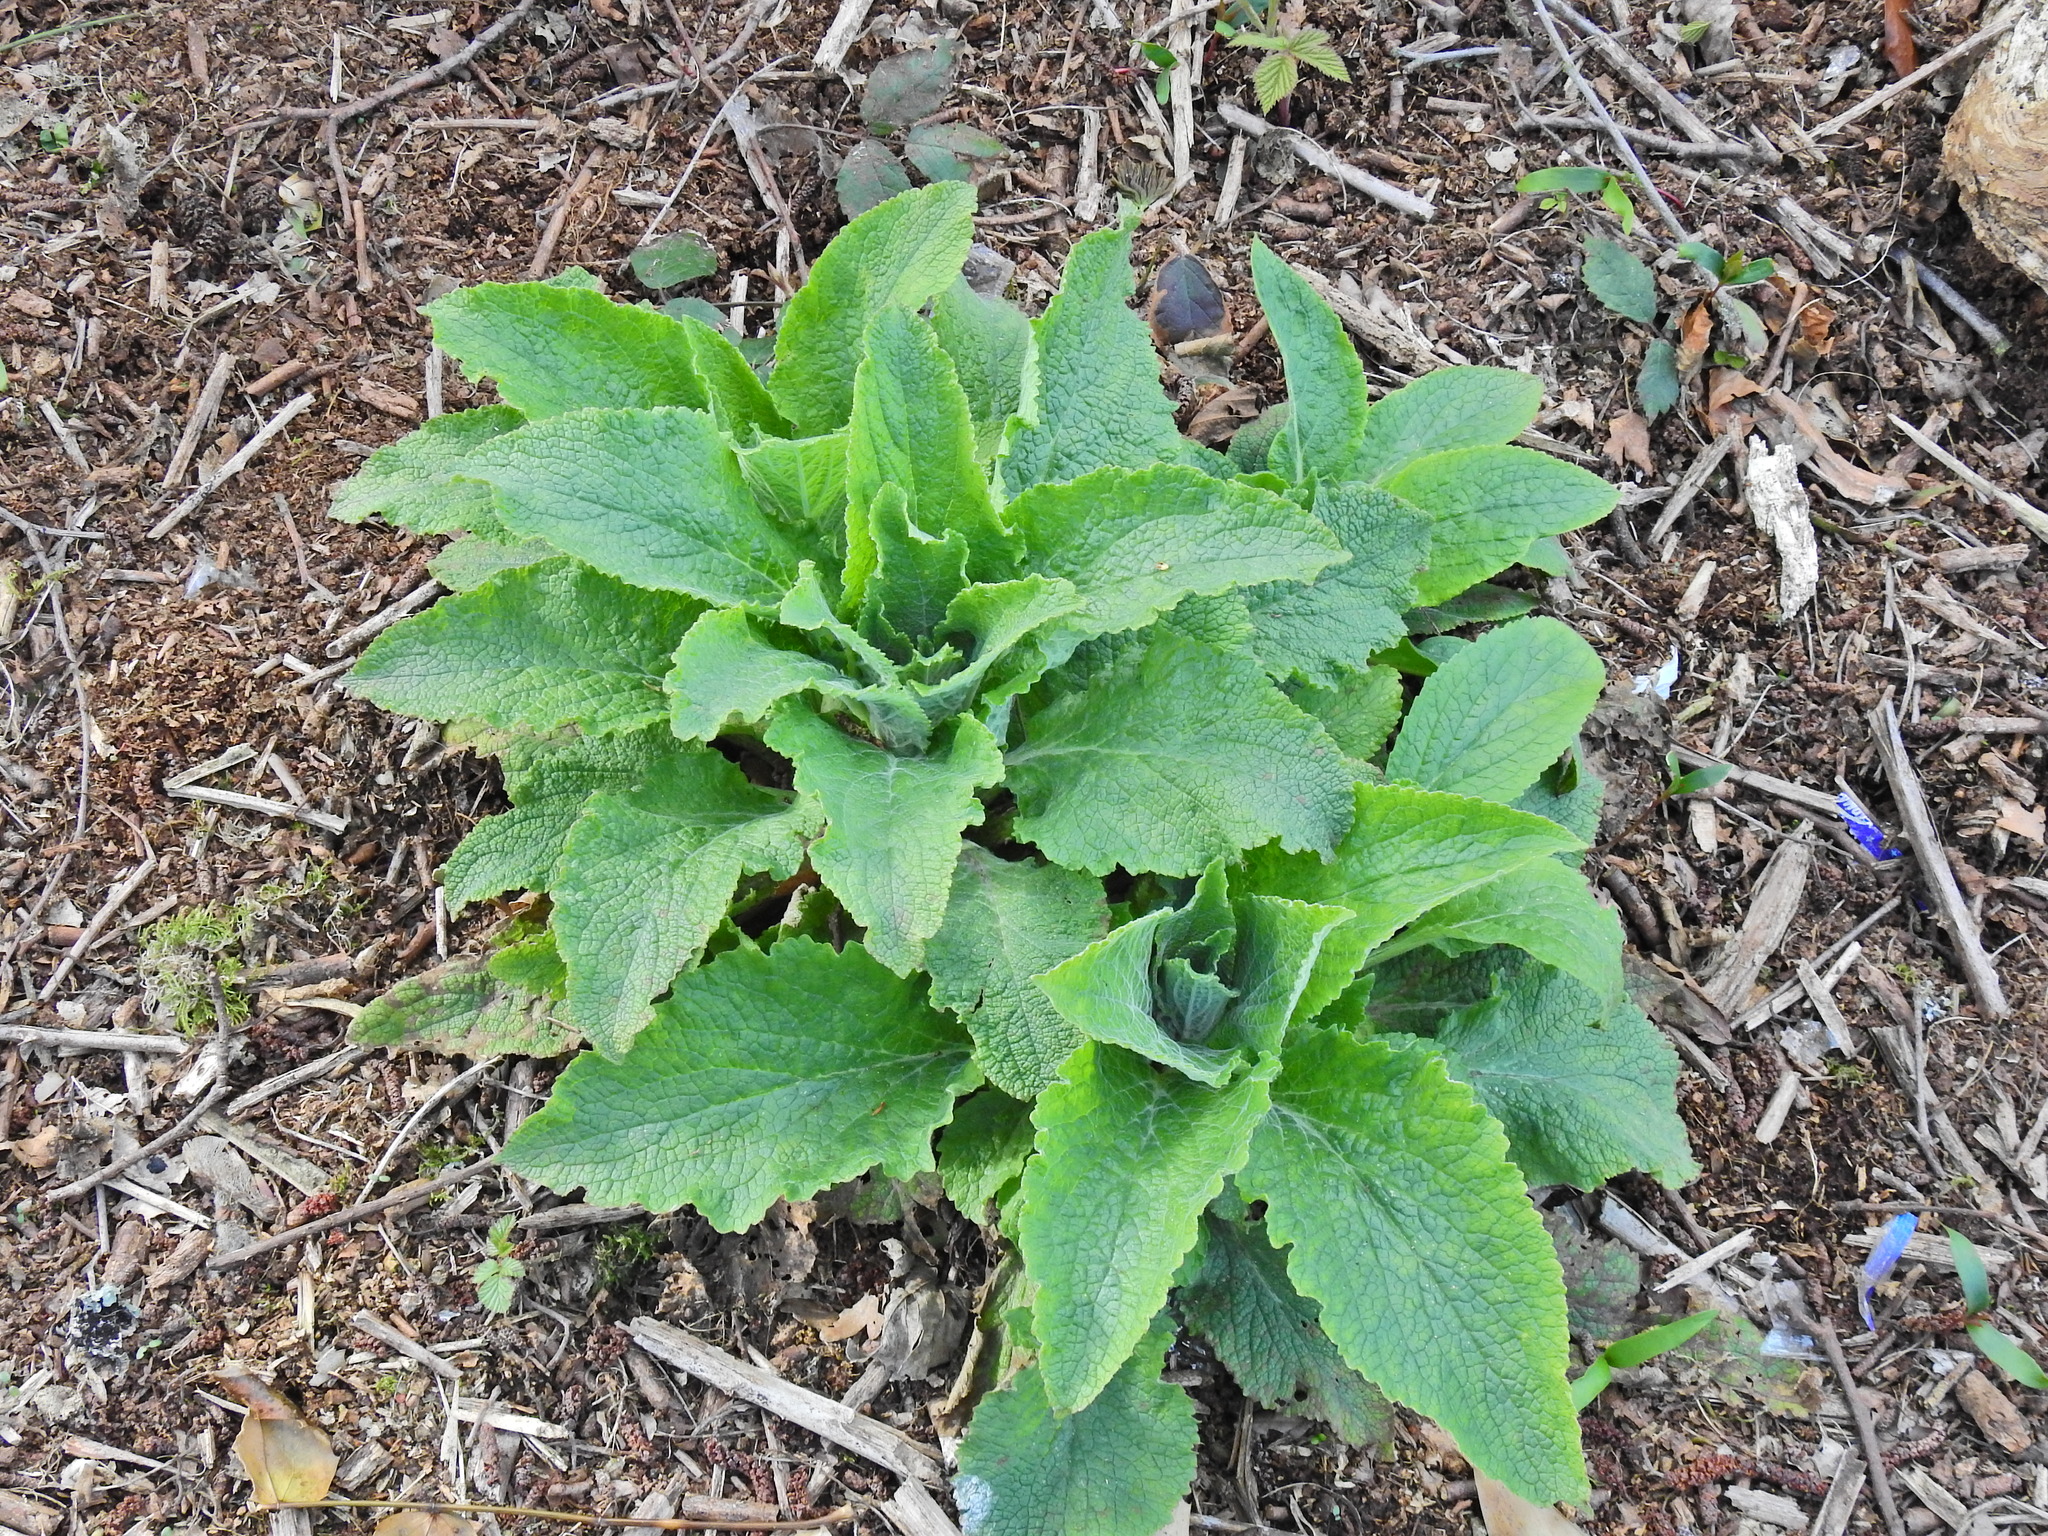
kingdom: Plantae
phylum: Tracheophyta
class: Magnoliopsida
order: Lamiales
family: Plantaginaceae
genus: Digitalis
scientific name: Digitalis purpurea
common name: Foxglove
